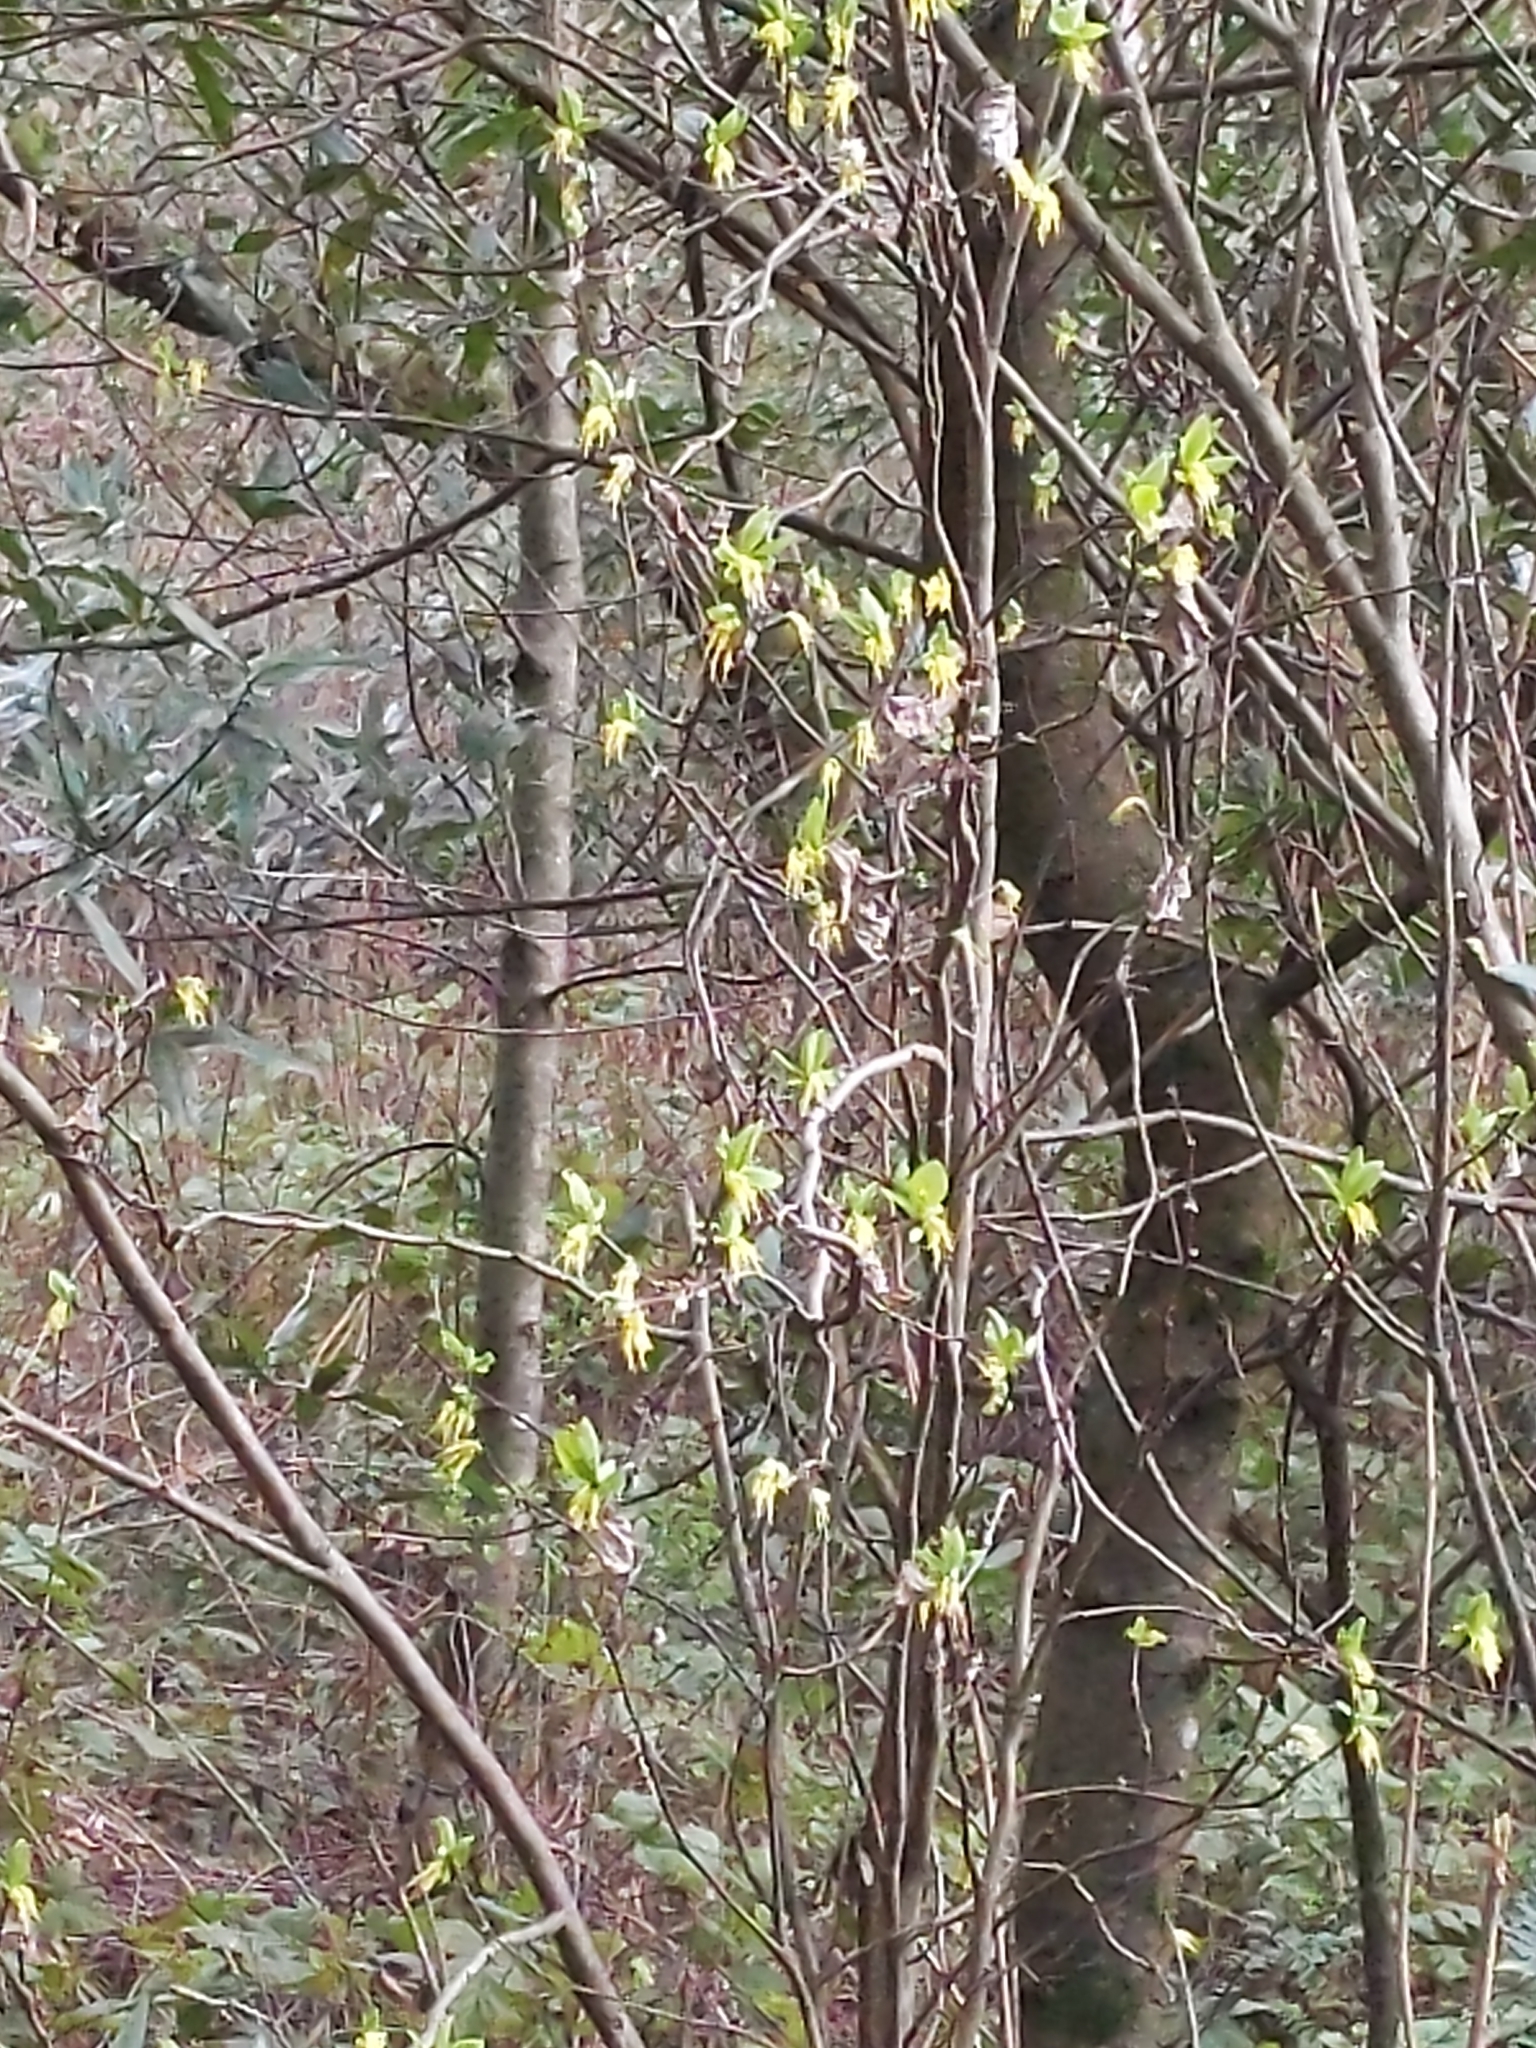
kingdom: Plantae
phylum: Tracheophyta
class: Magnoliopsida
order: Malvales
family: Thymelaeaceae
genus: Dirca
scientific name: Dirca occidentalis
